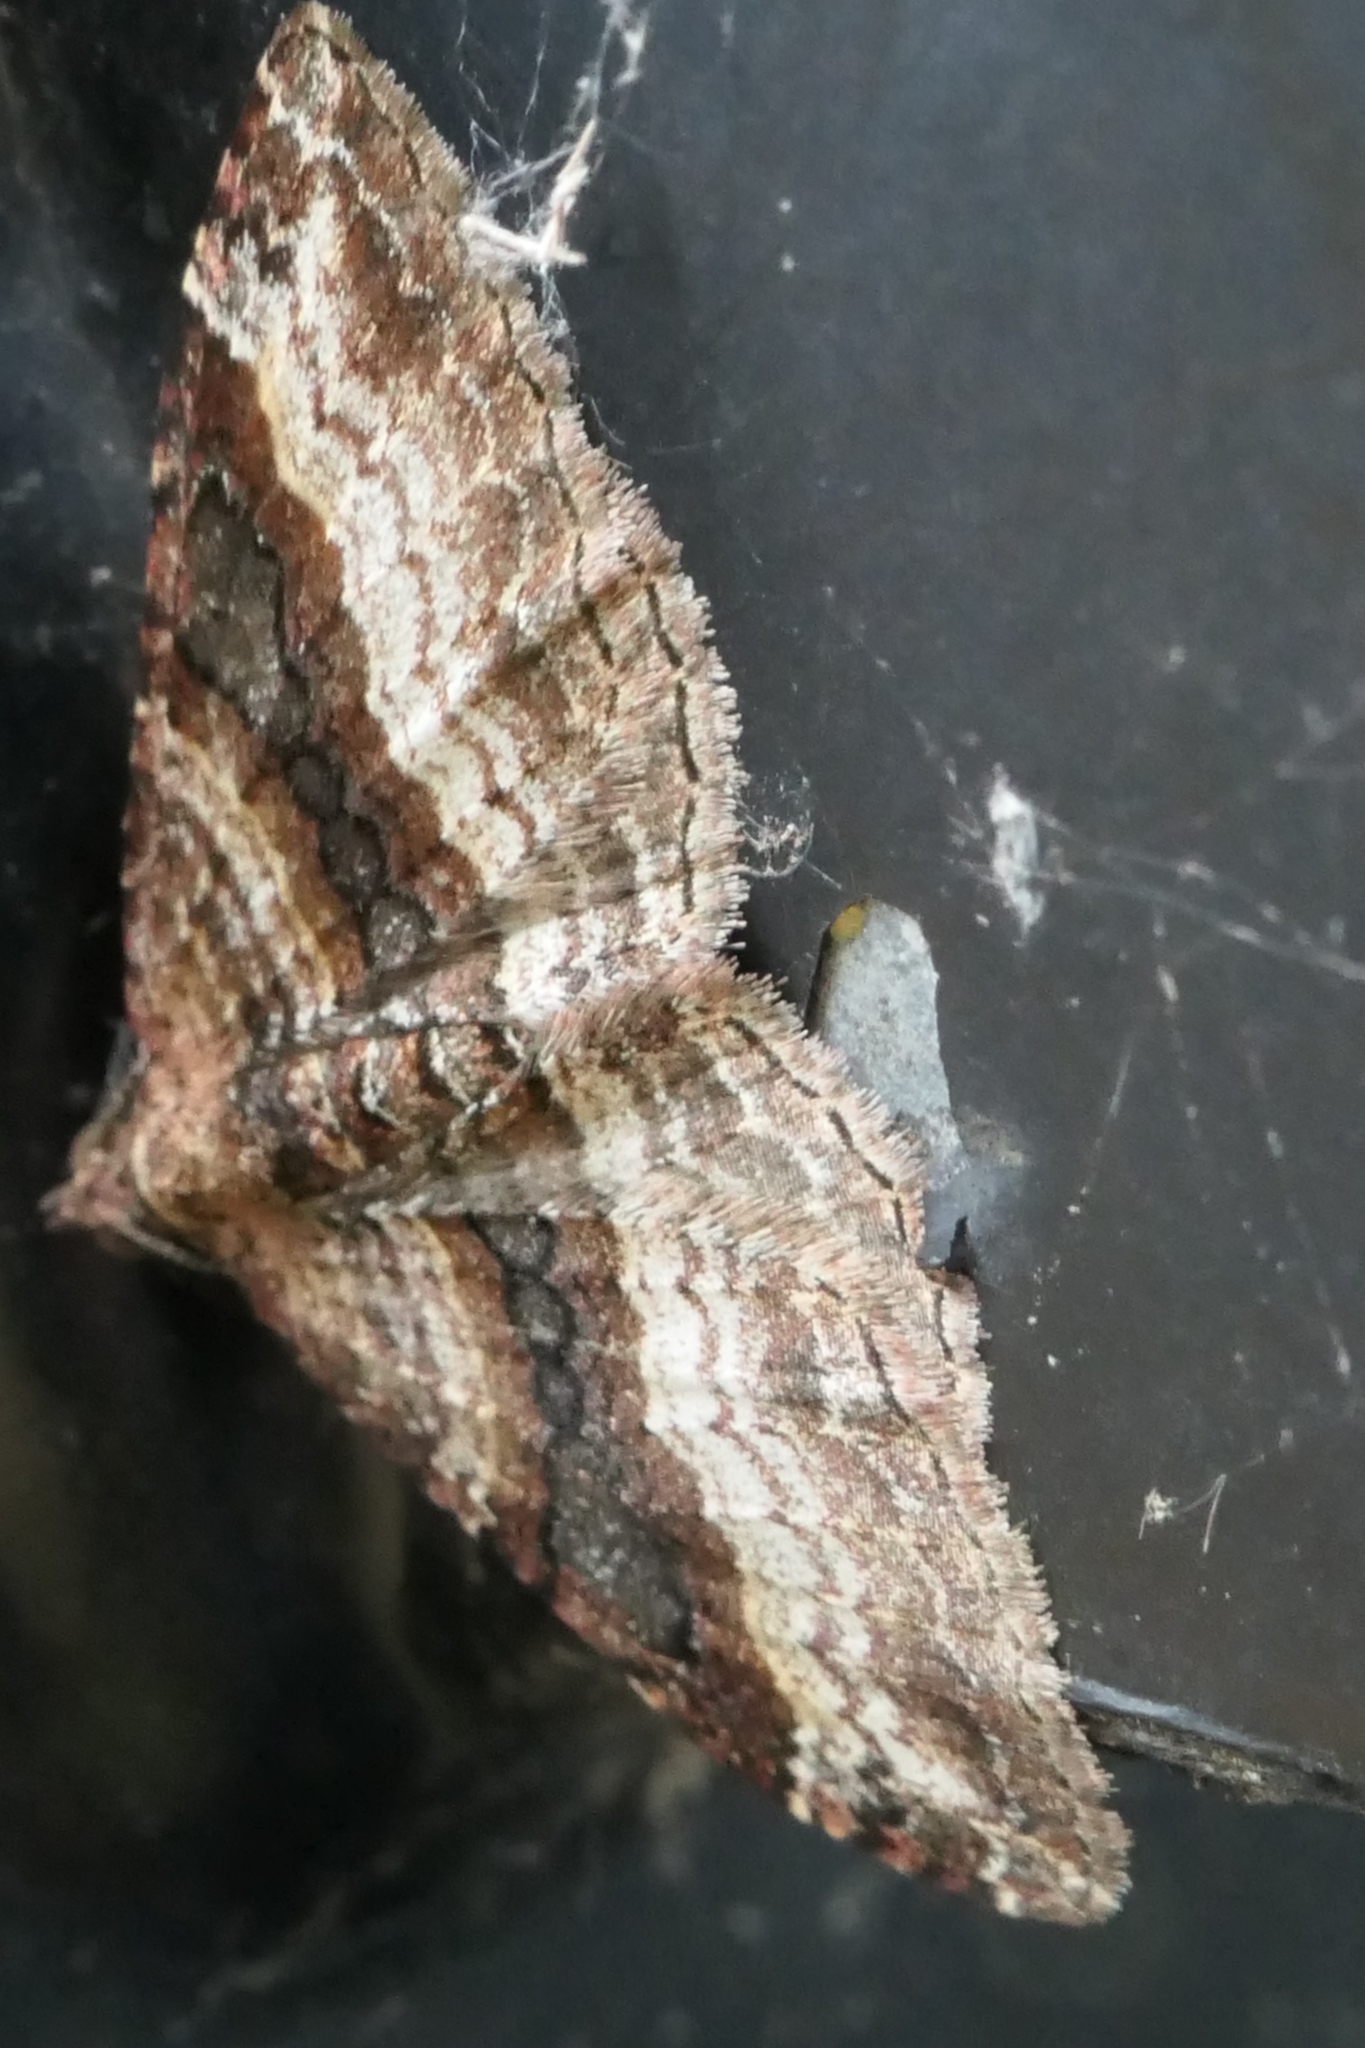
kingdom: Animalia
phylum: Arthropoda
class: Insecta
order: Lepidoptera
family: Geometridae
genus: Epyaxa
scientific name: Epyaxa lucidata
